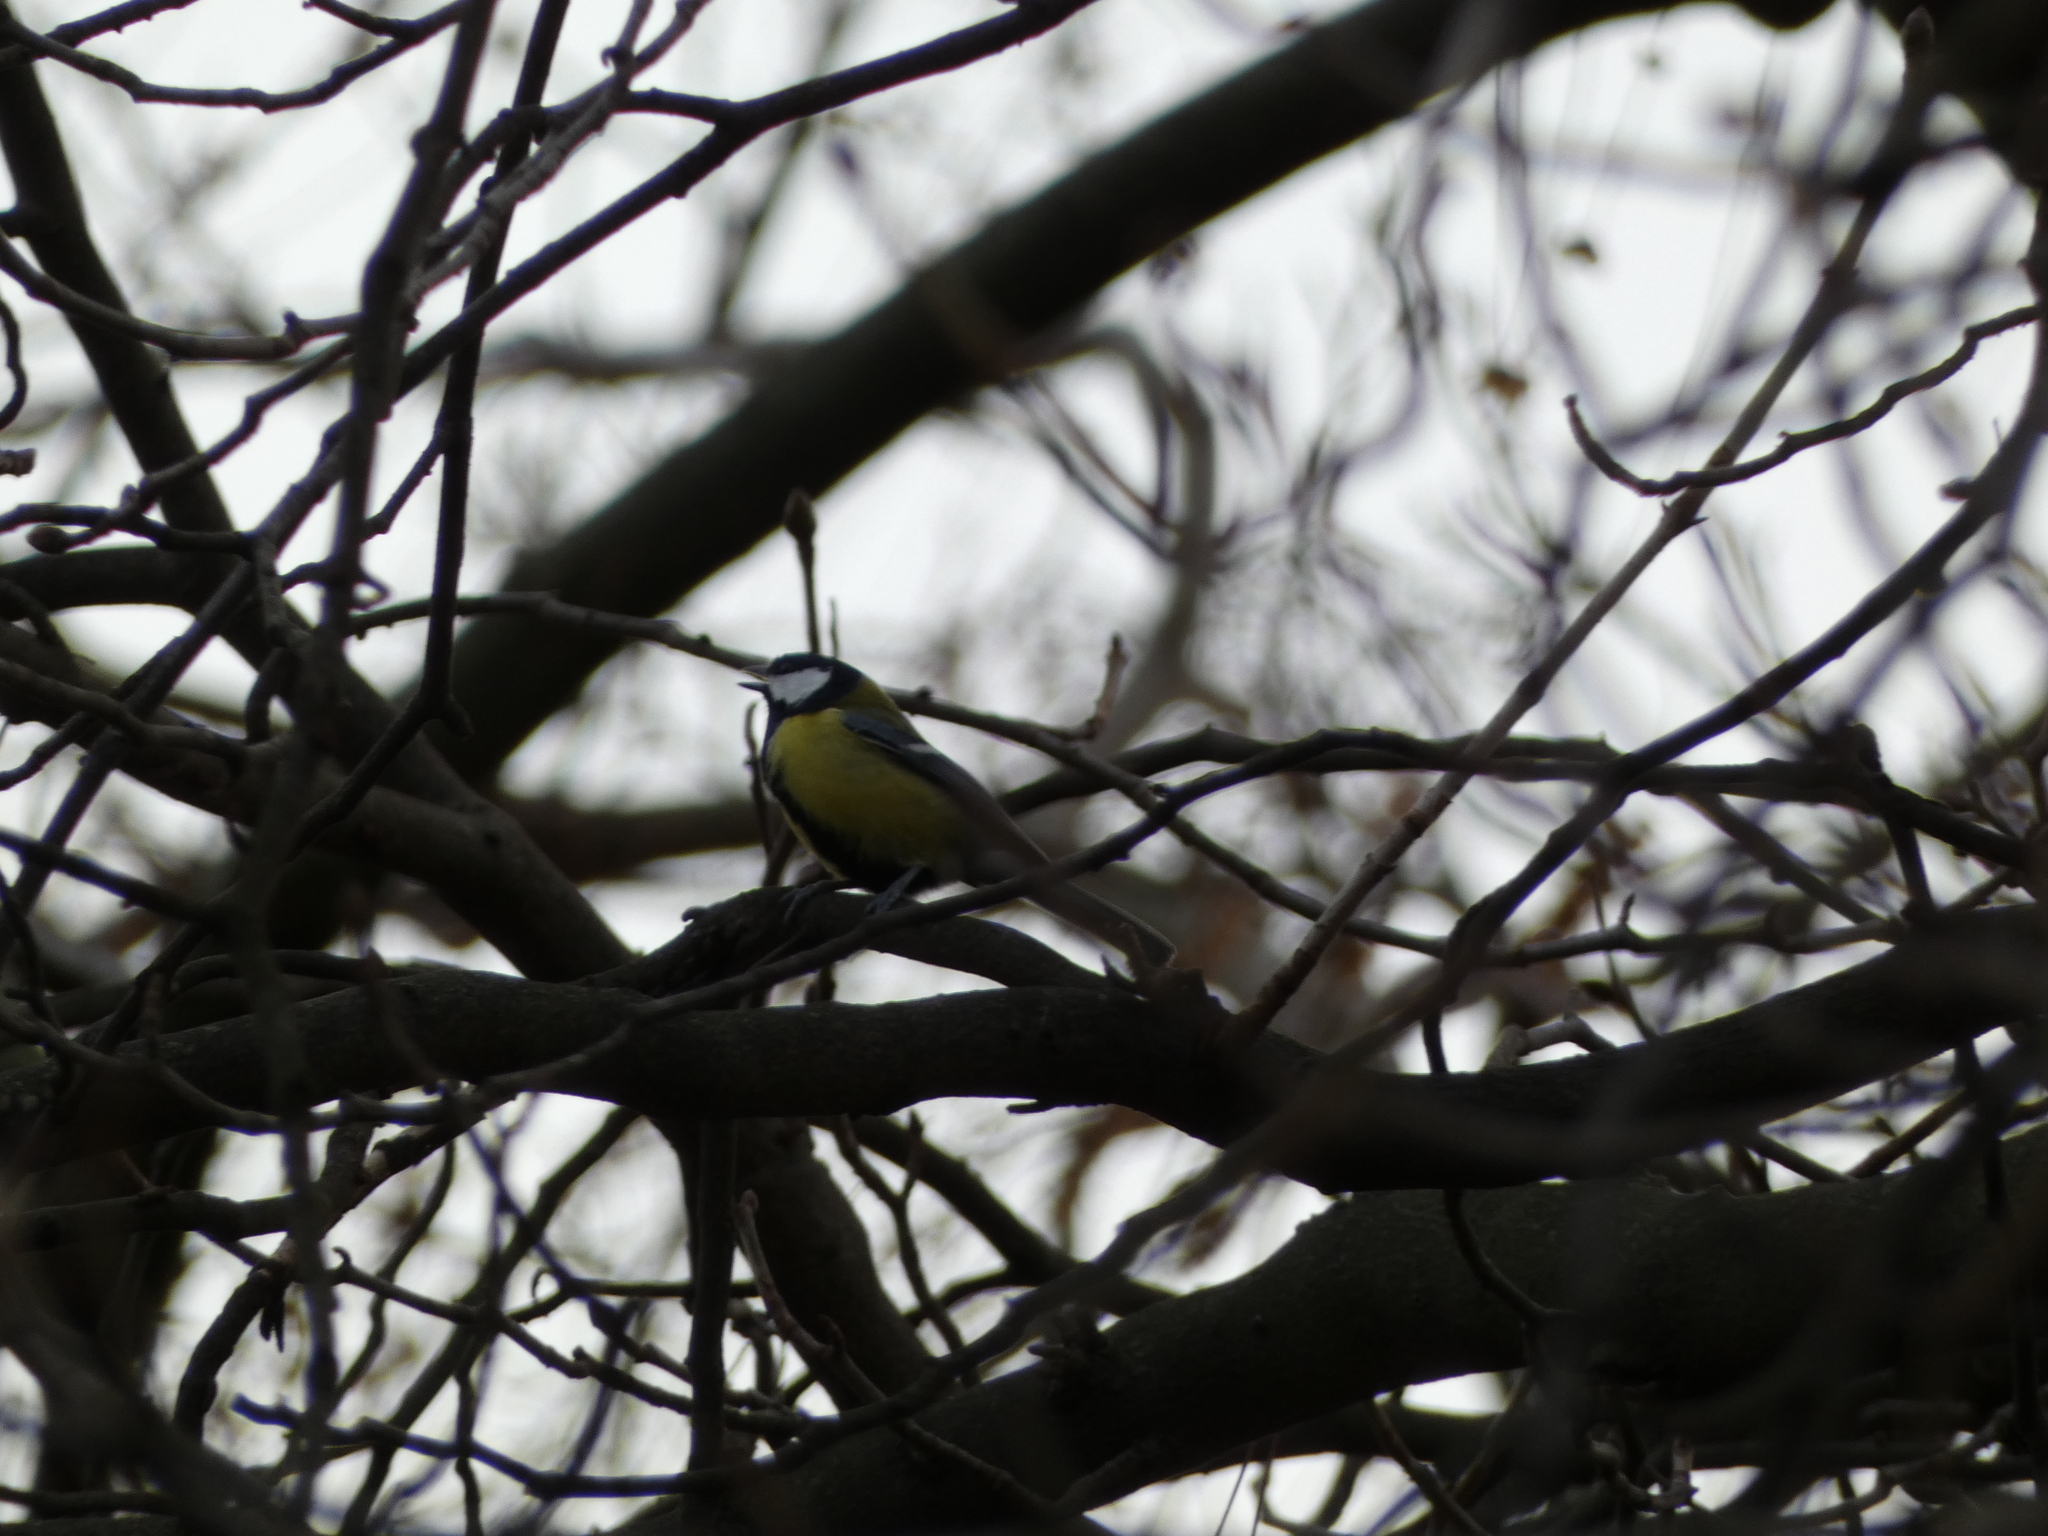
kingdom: Animalia
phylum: Chordata
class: Aves
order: Passeriformes
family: Paridae
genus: Parus
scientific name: Parus major
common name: Great tit
